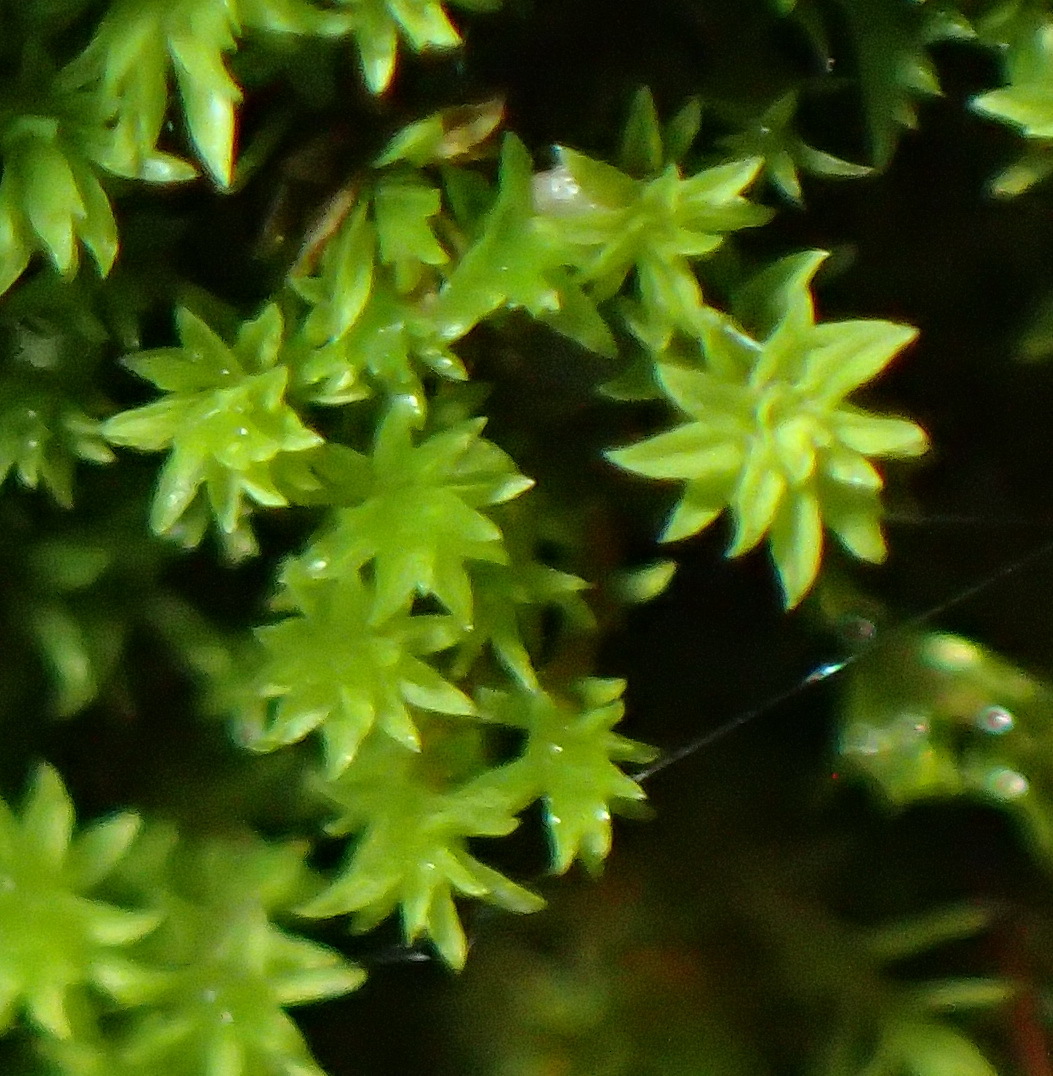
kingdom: Plantae
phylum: Bryophyta
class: Bryopsida
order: Pottiales
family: Pottiaceae
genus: Pseudocrossidium
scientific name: Pseudocrossidium adustum
